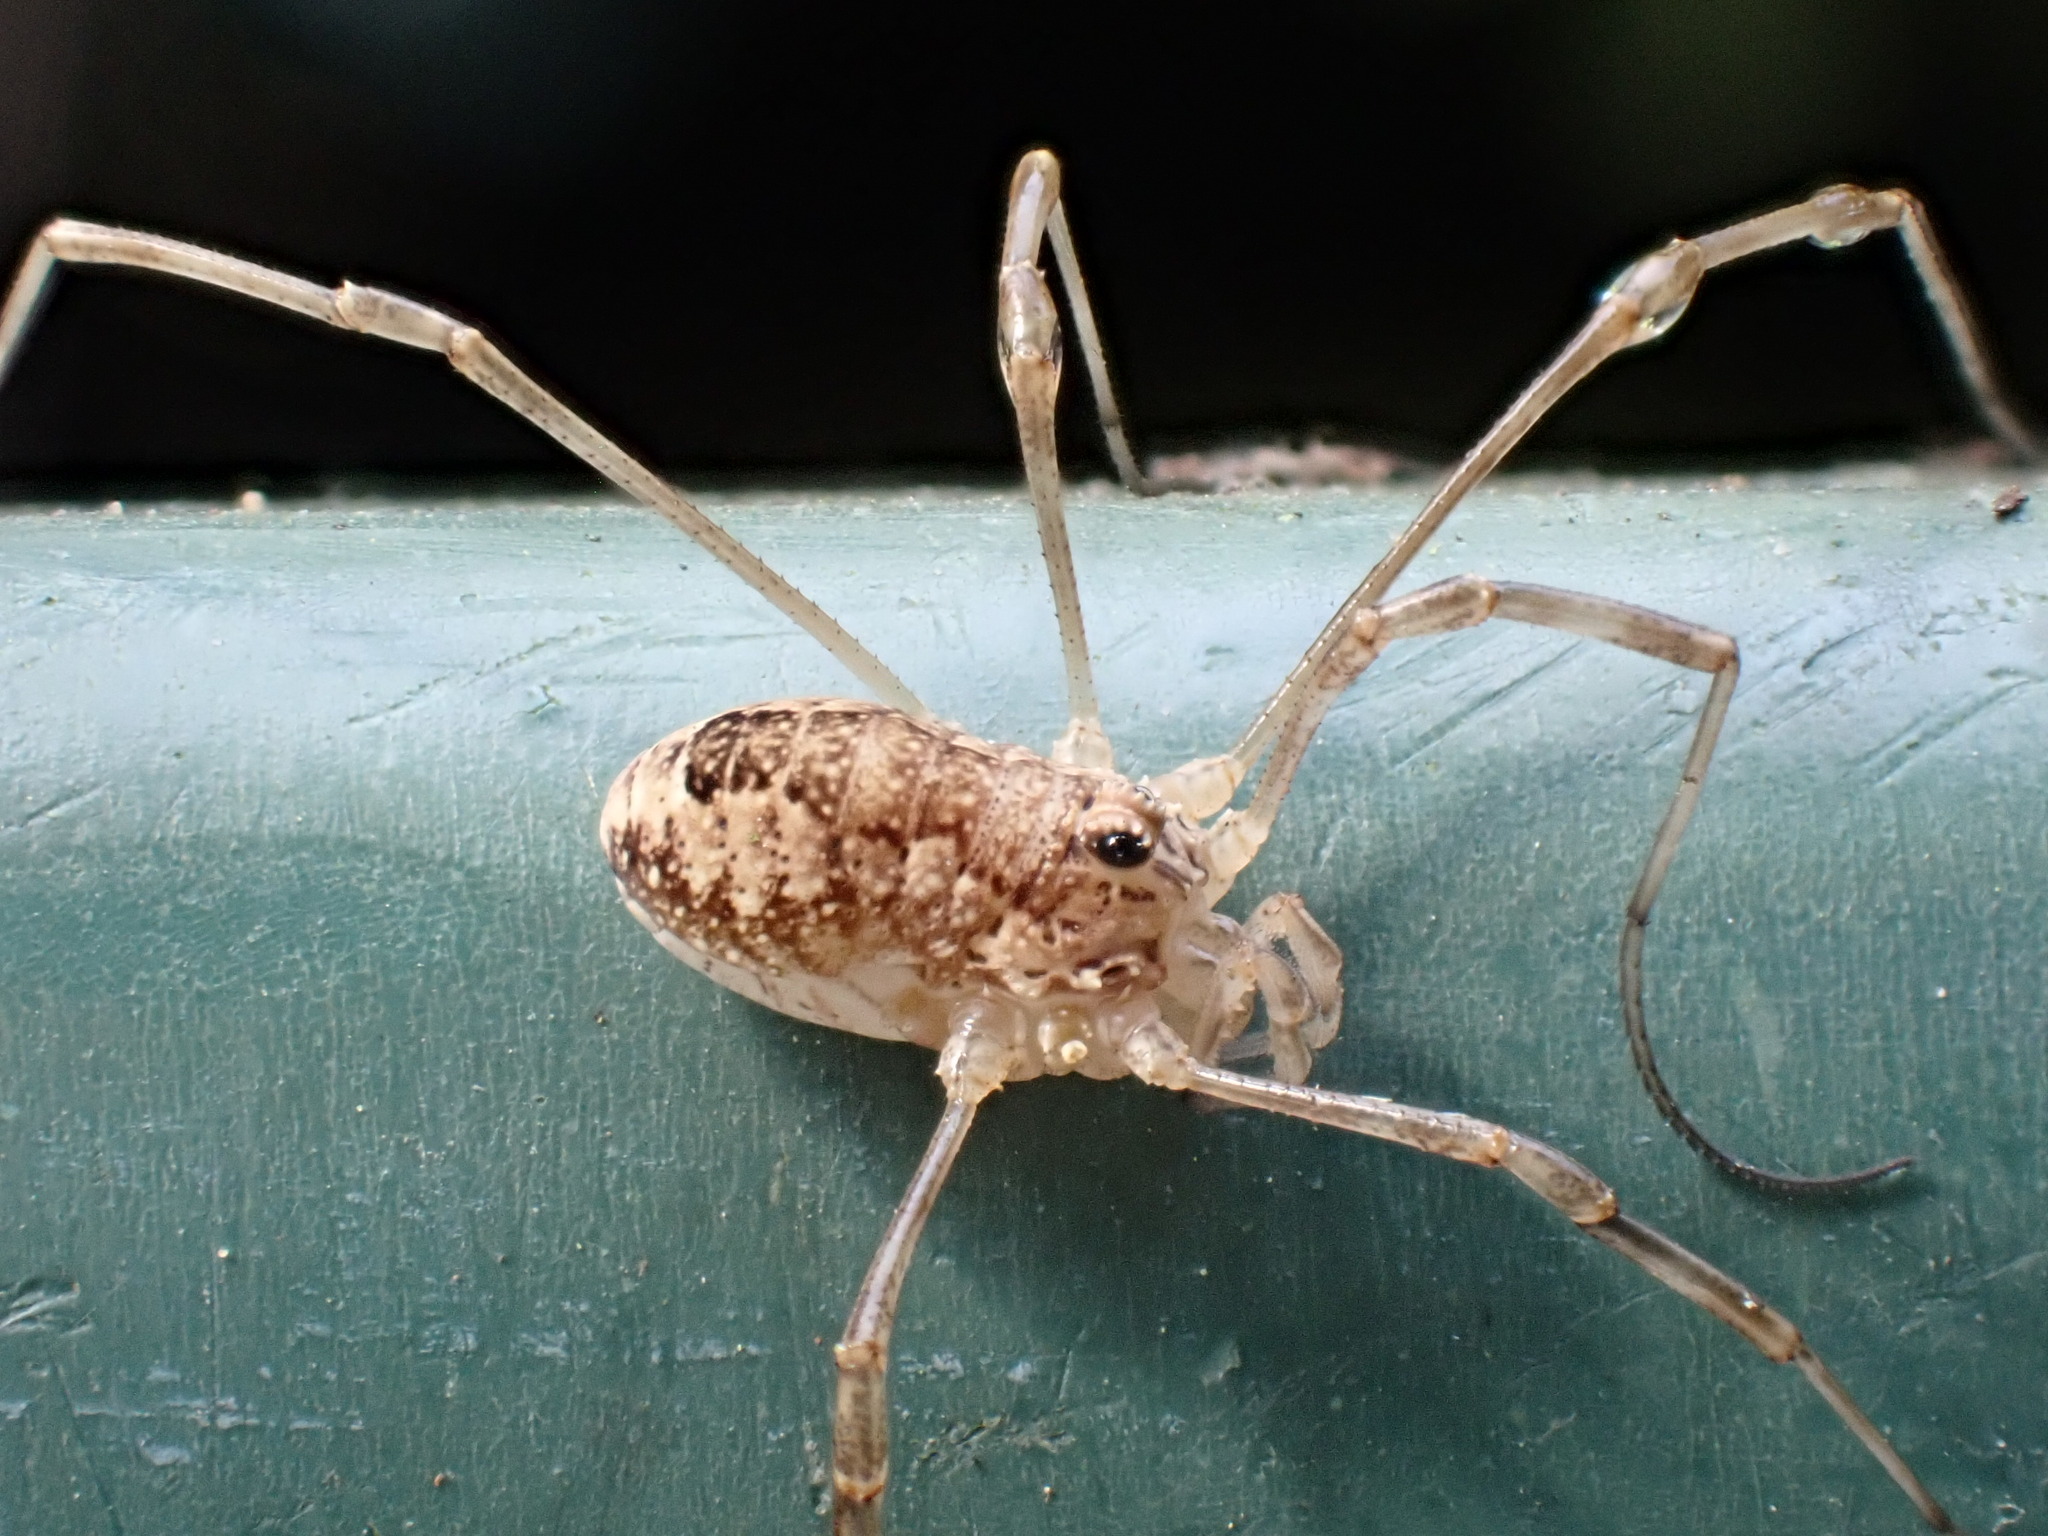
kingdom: Animalia
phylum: Arthropoda
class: Arachnida
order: Opiliones
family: Phalangiidae
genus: Rilaena
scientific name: Rilaena triangularis
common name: Spring harvestman
